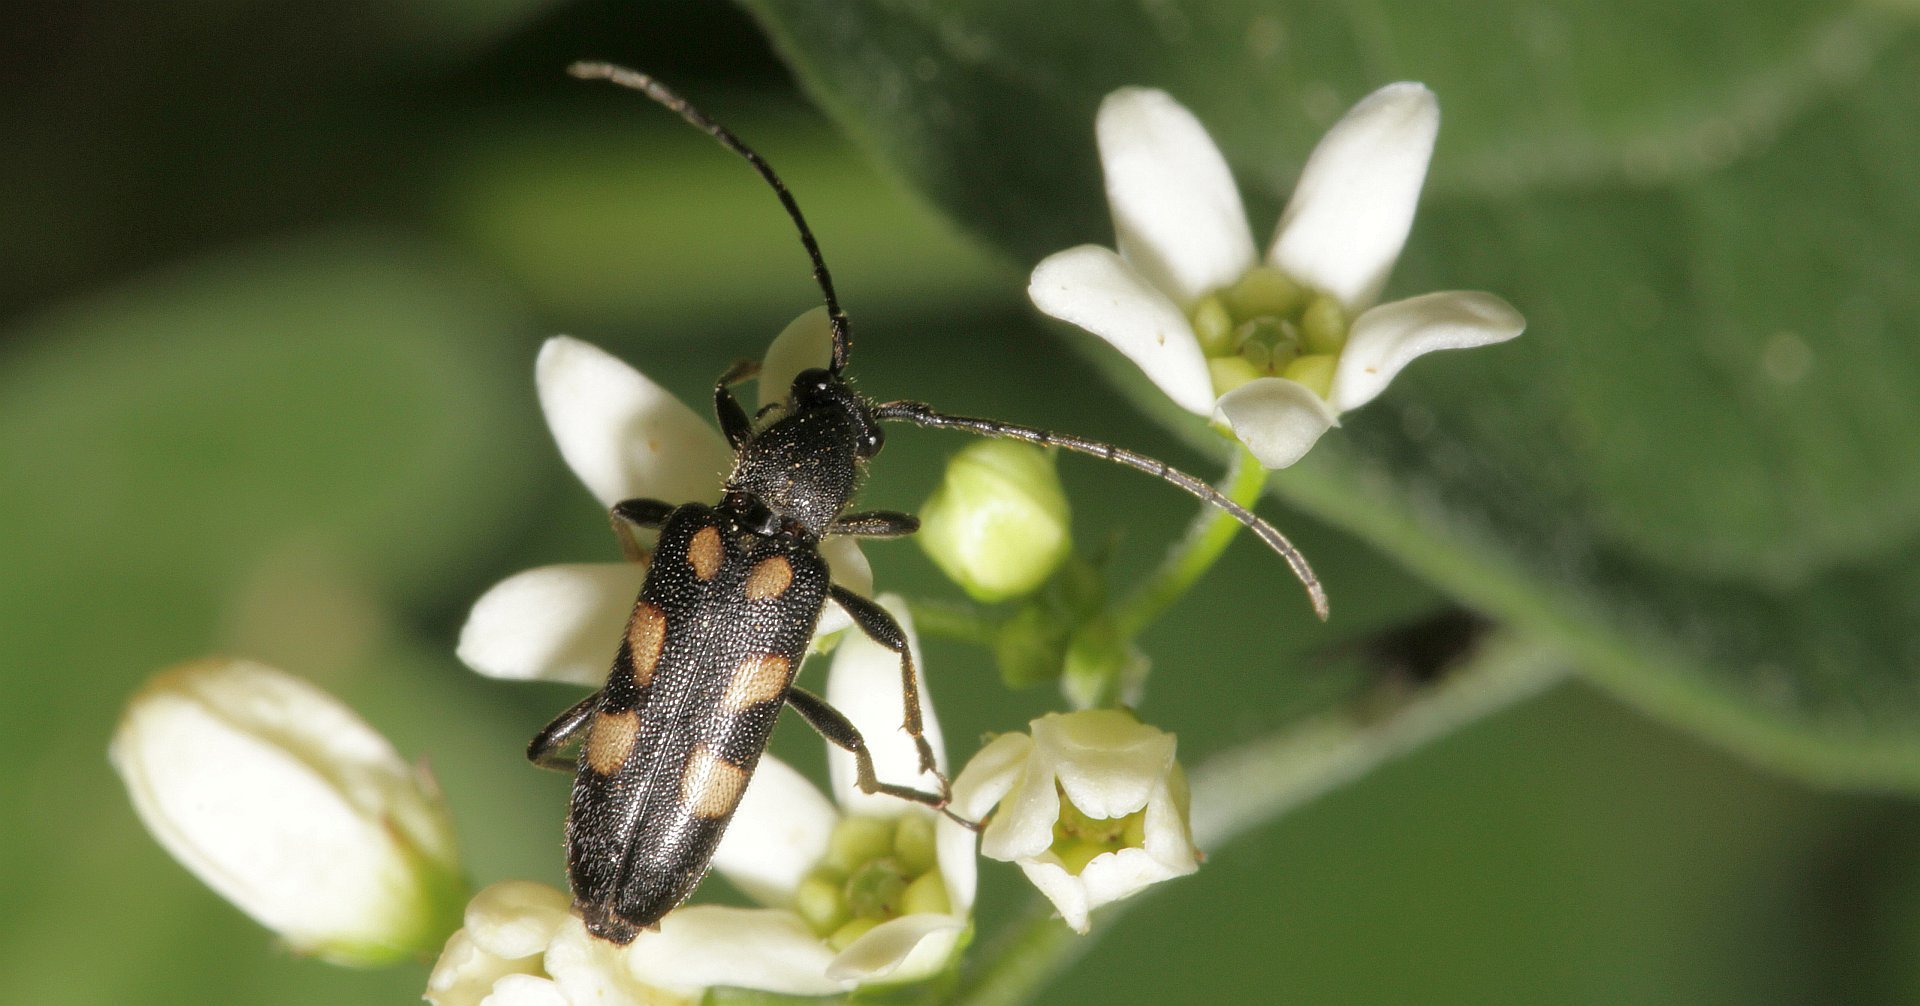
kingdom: Animalia
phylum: Arthropoda
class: Insecta
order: Coleoptera
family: Cerambycidae
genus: Anoplodera
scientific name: Anoplodera sexguttata
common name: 6 spotted longhorn
